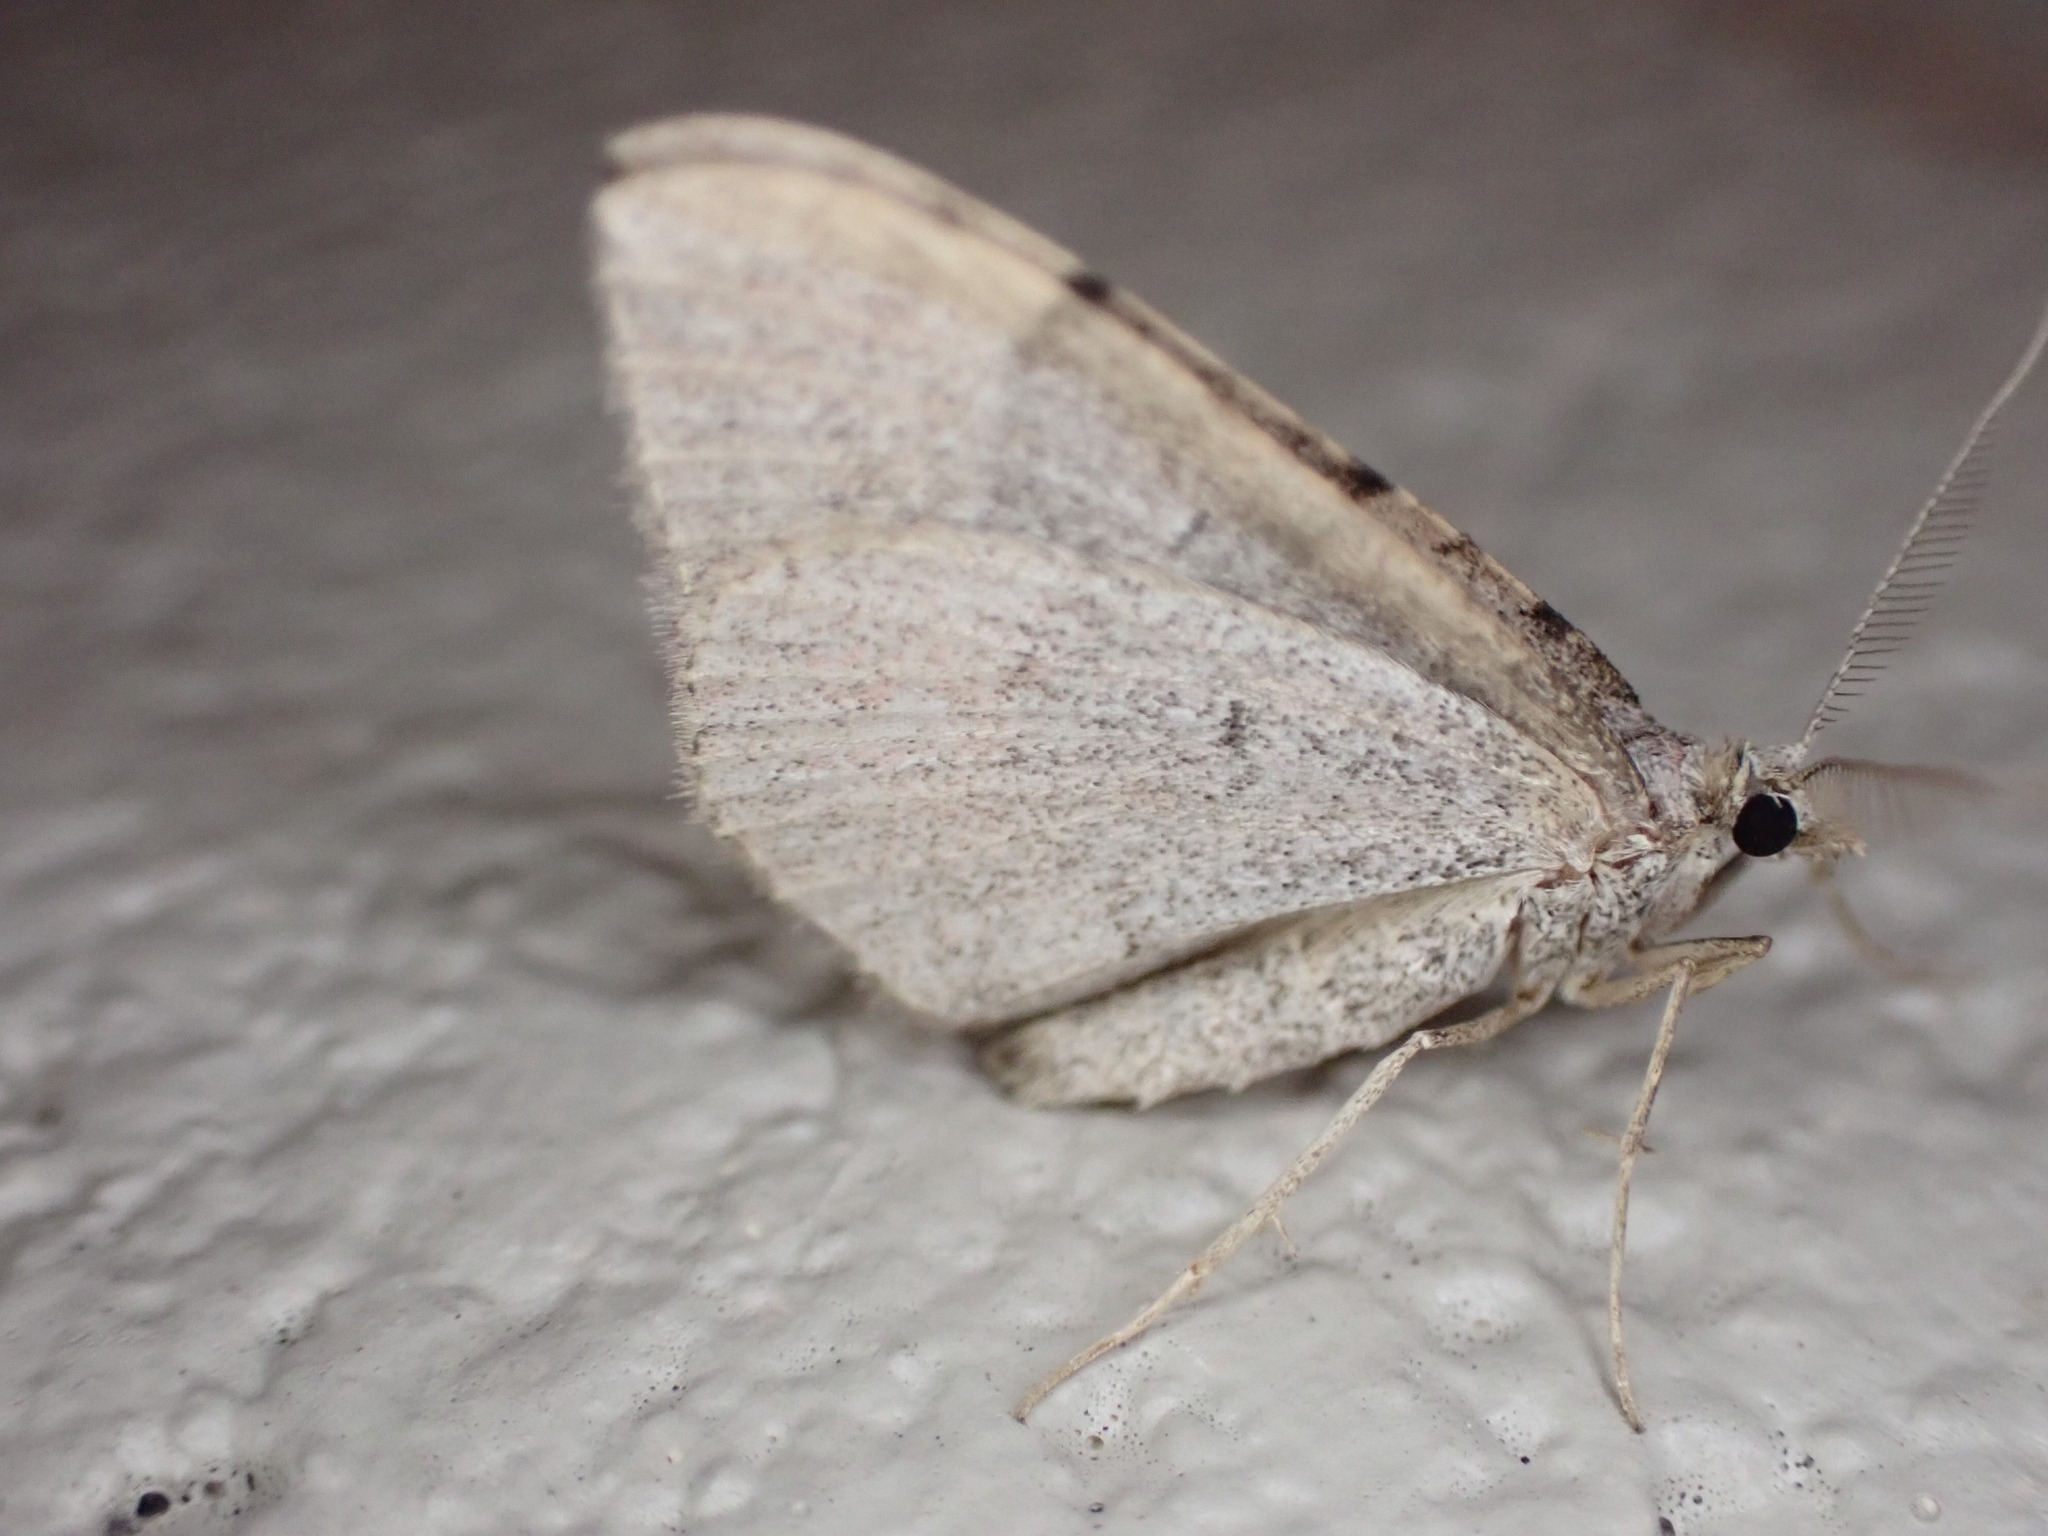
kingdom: Animalia
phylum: Arthropoda
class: Insecta
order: Lepidoptera
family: Geometridae
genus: Epyaxa
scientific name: Epyaxa rosearia
